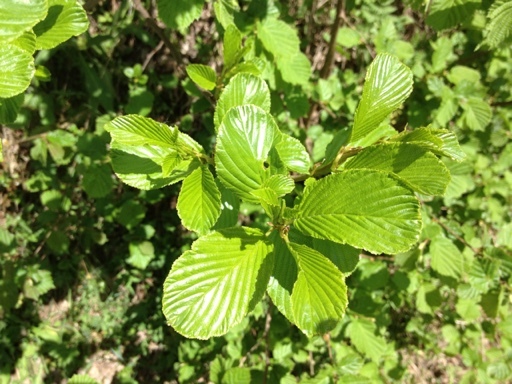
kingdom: Plantae
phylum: Tracheophyta
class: Magnoliopsida
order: Rosales
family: Rhamnaceae
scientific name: Rhamnaceae
